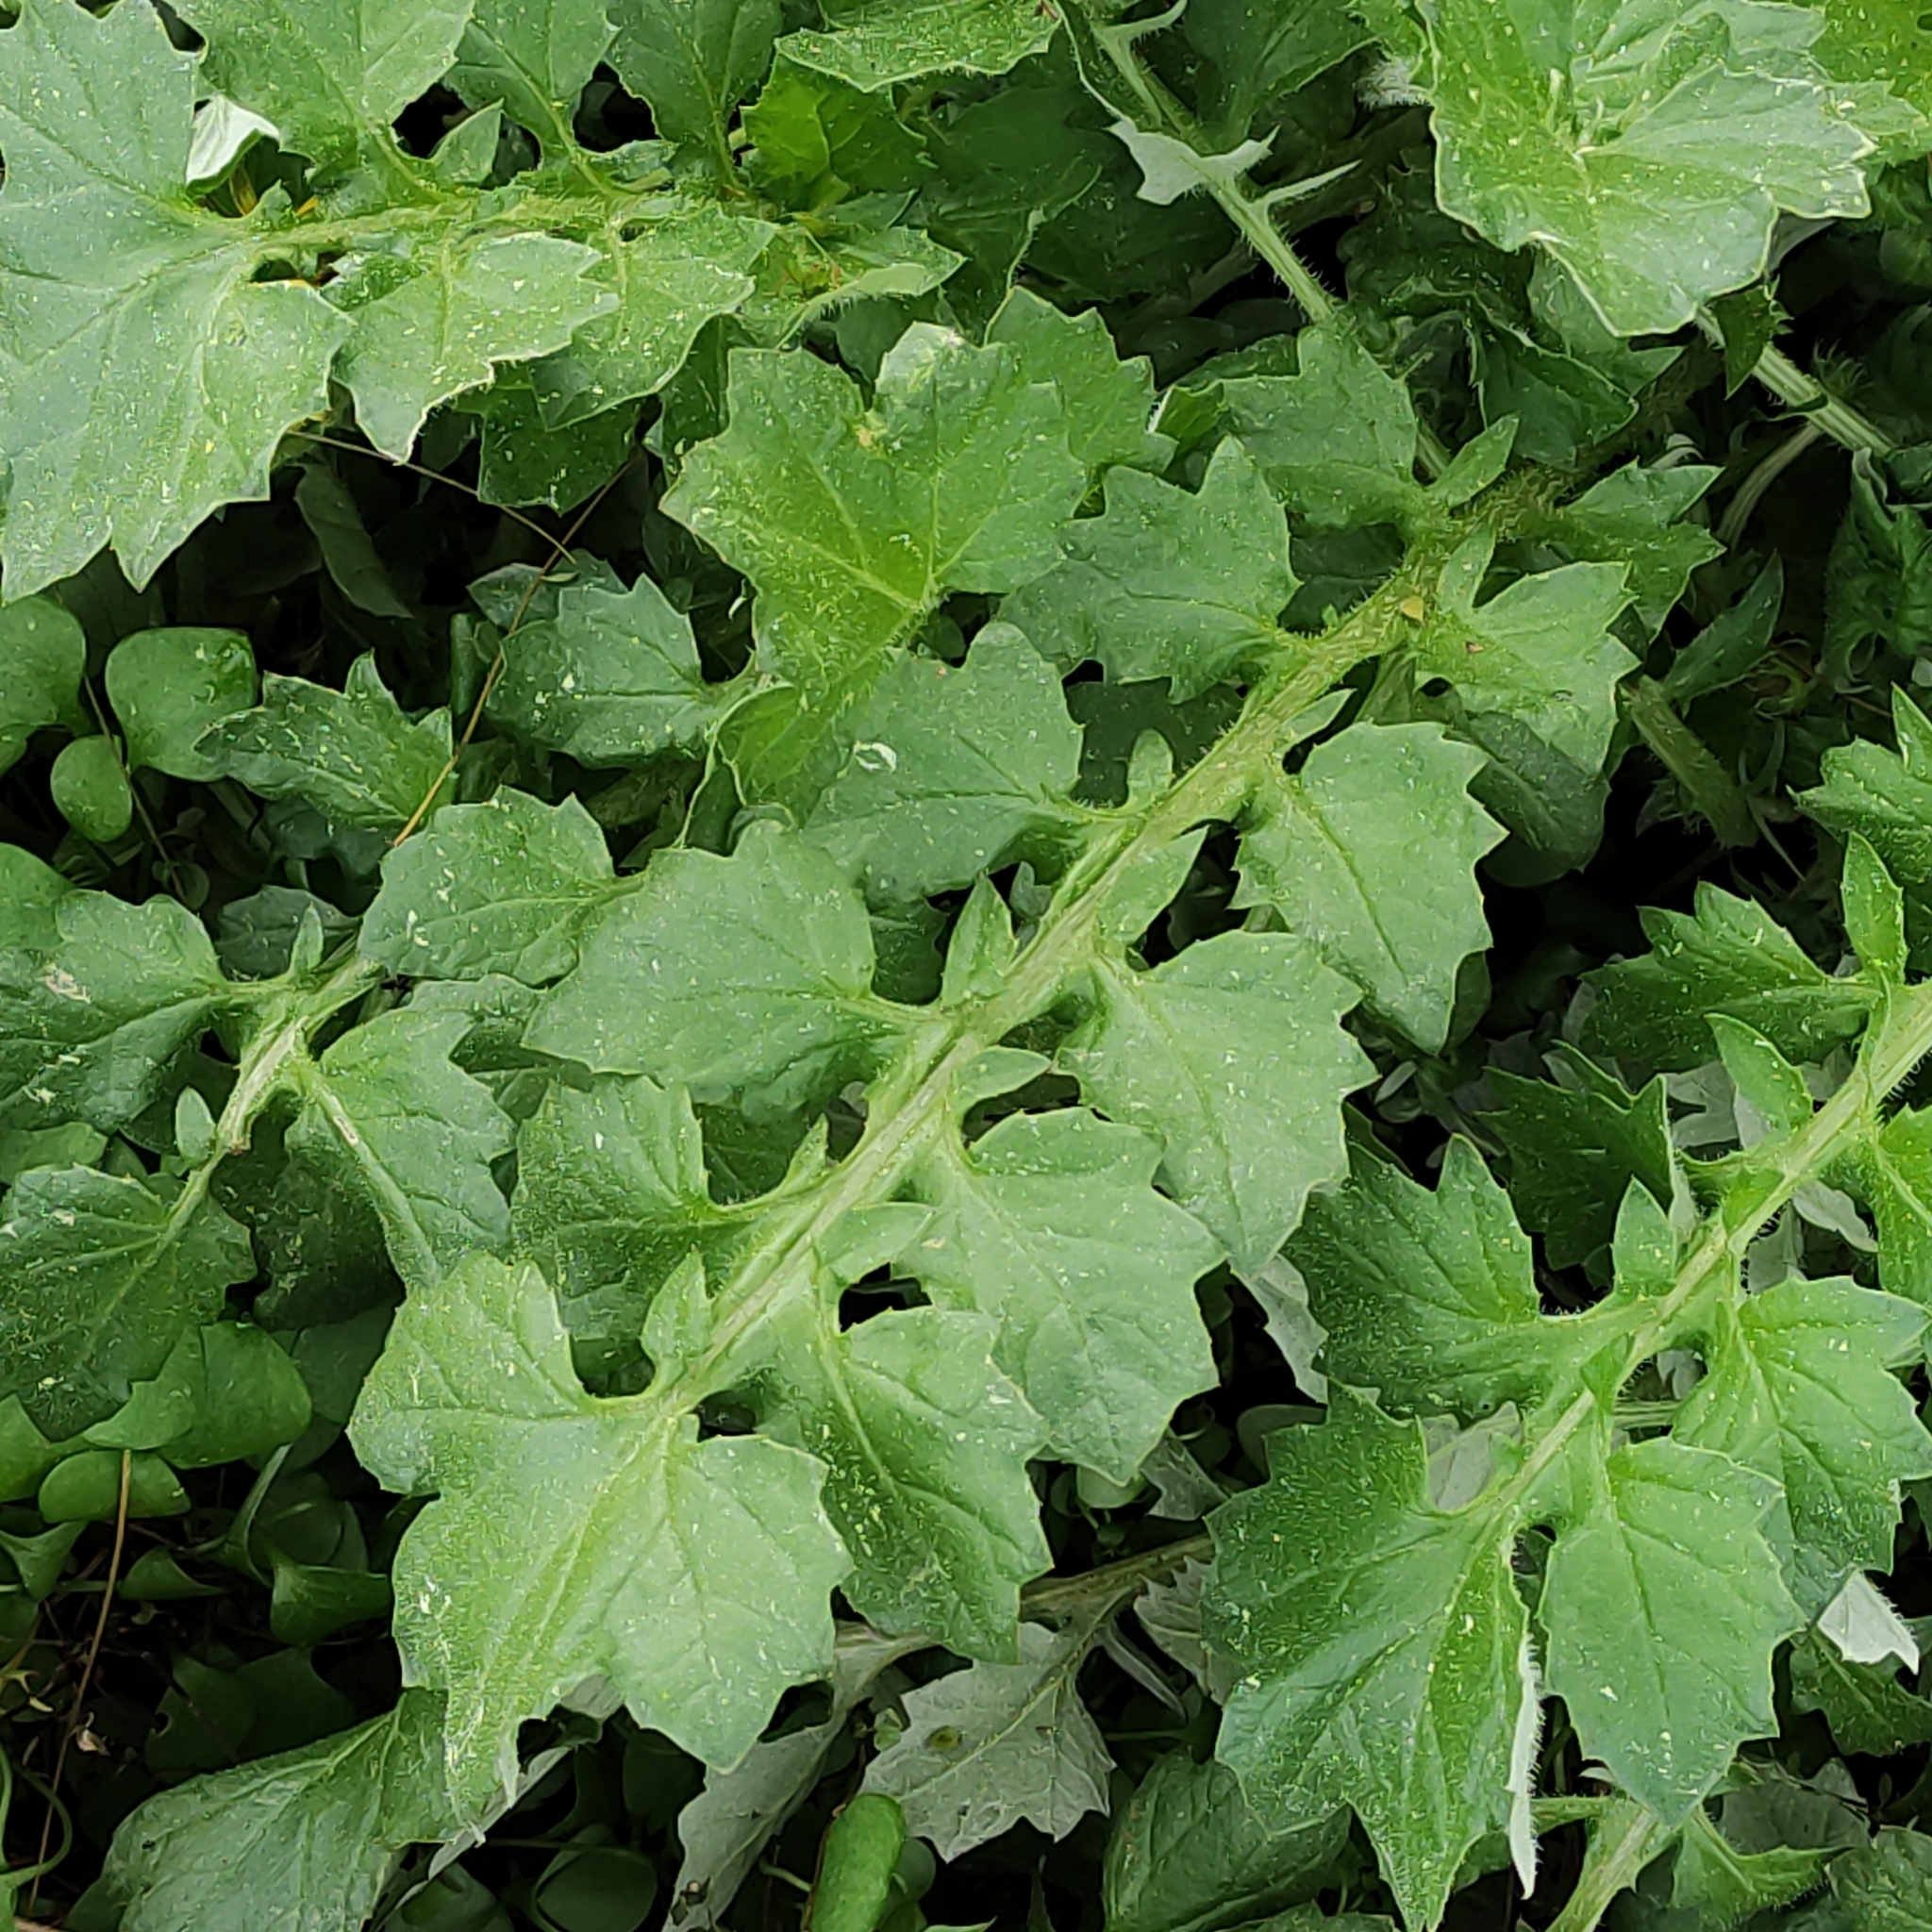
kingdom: Plantae
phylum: Tracheophyta
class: Magnoliopsida
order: Asterales
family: Asteraceae
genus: Arctotheca
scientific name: Arctotheca calendula
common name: Capeweed
